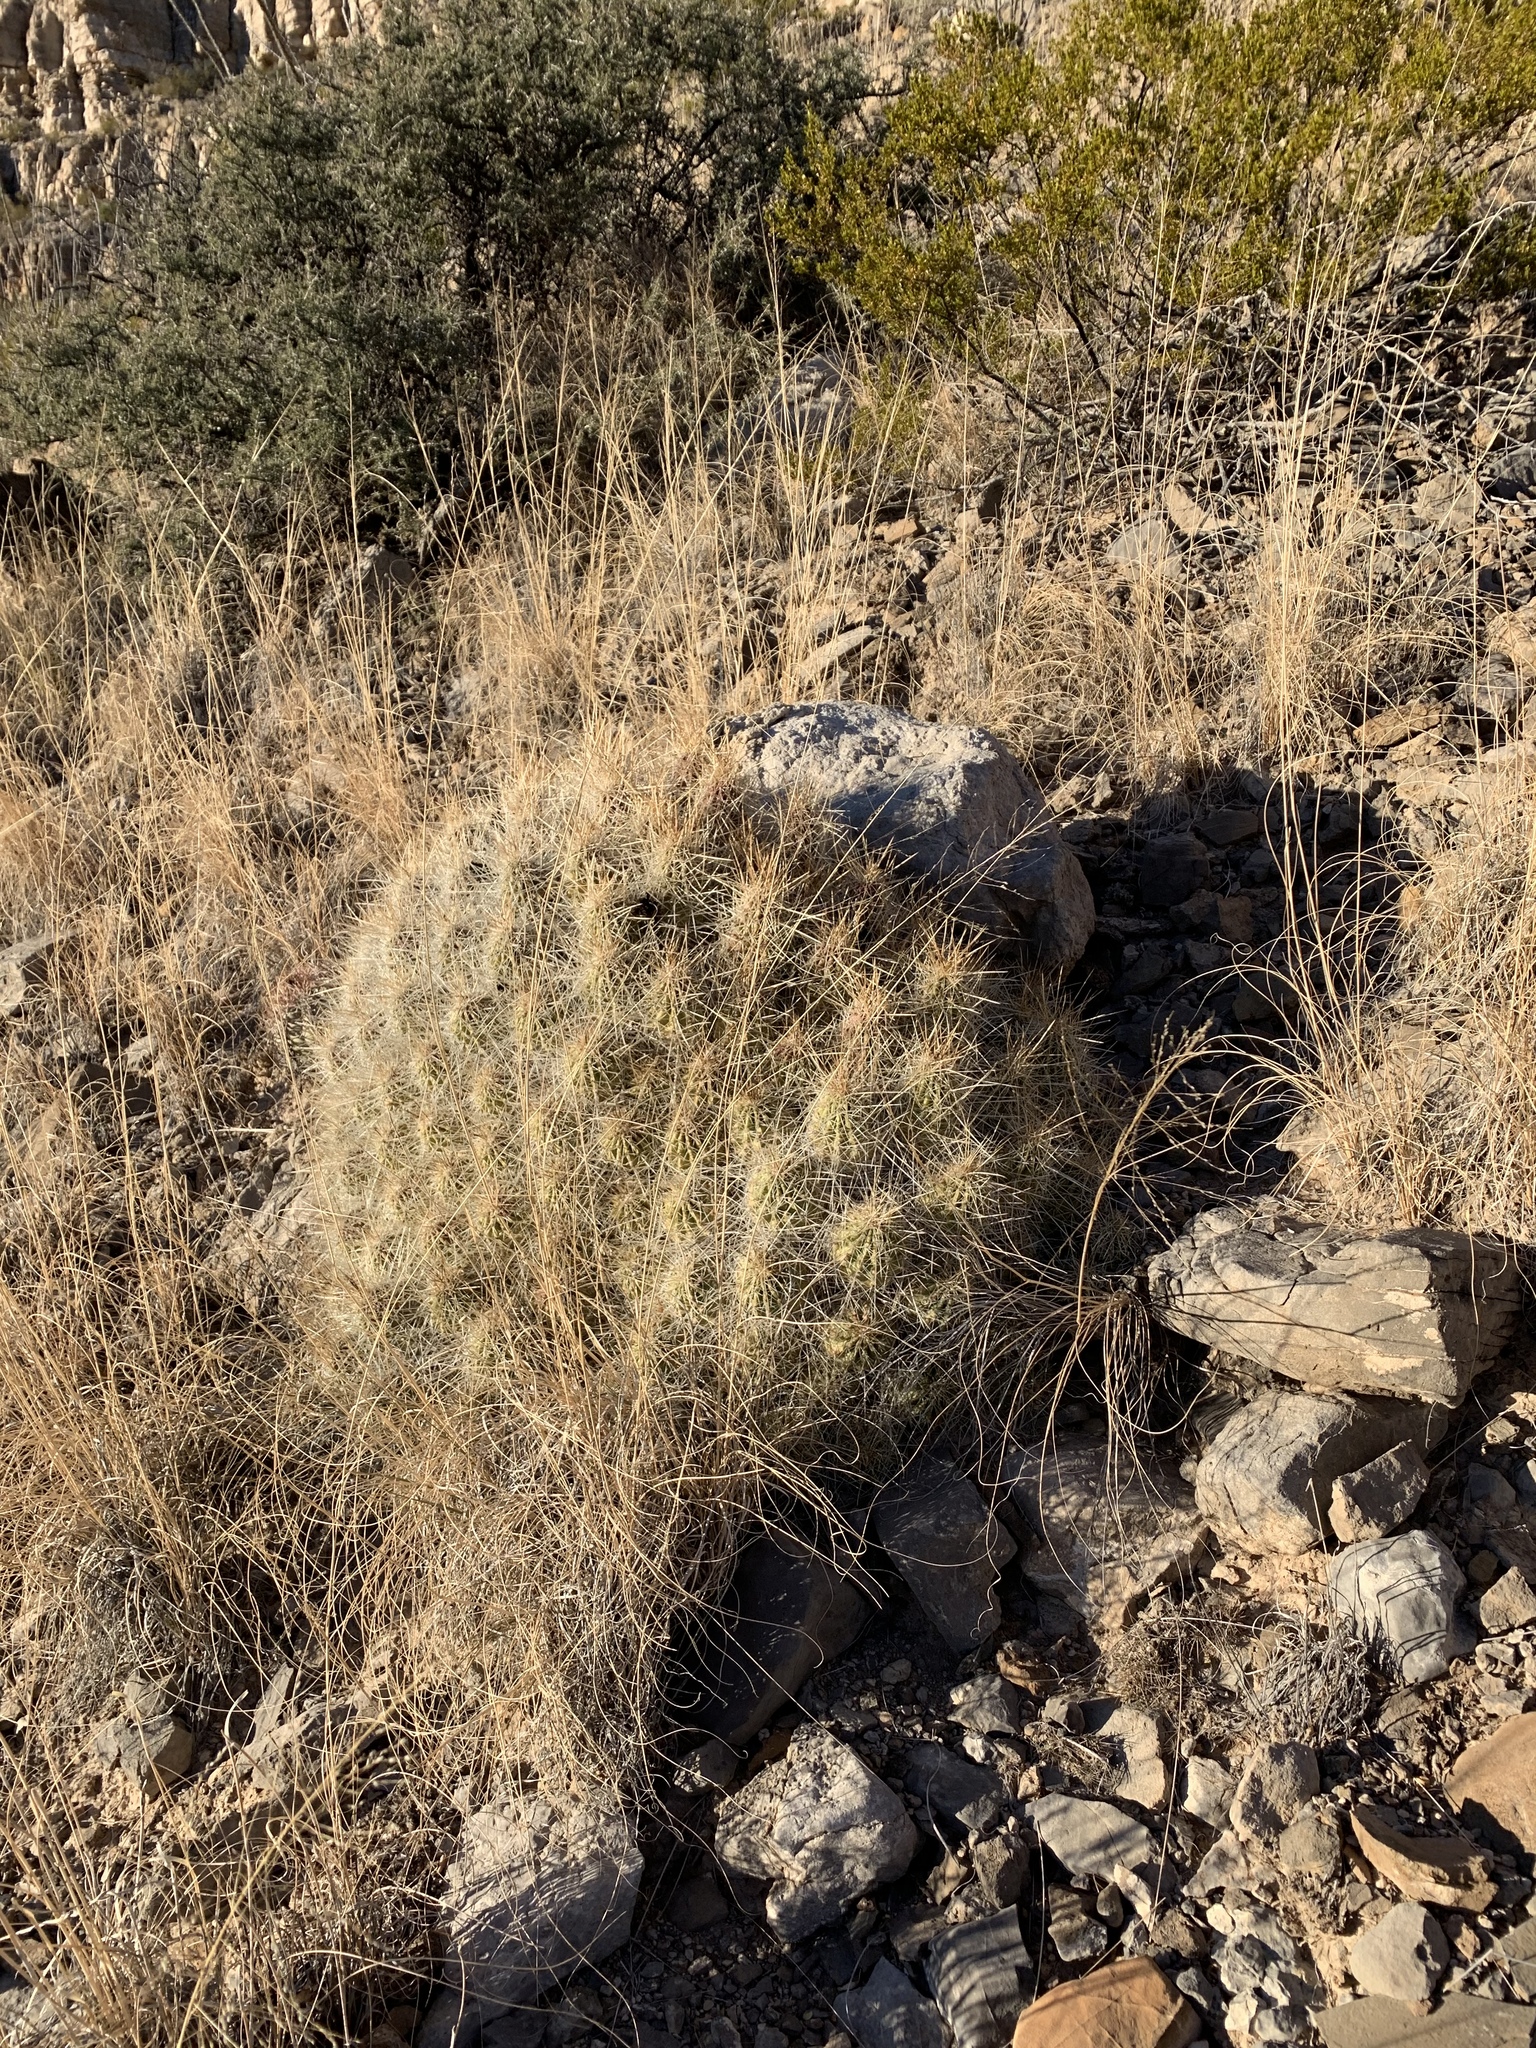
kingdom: Plantae
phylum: Tracheophyta
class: Magnoliopsida
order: Caryophyllales
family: Cactaceae
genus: Echinocereus
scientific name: Echinocereus stramineus
